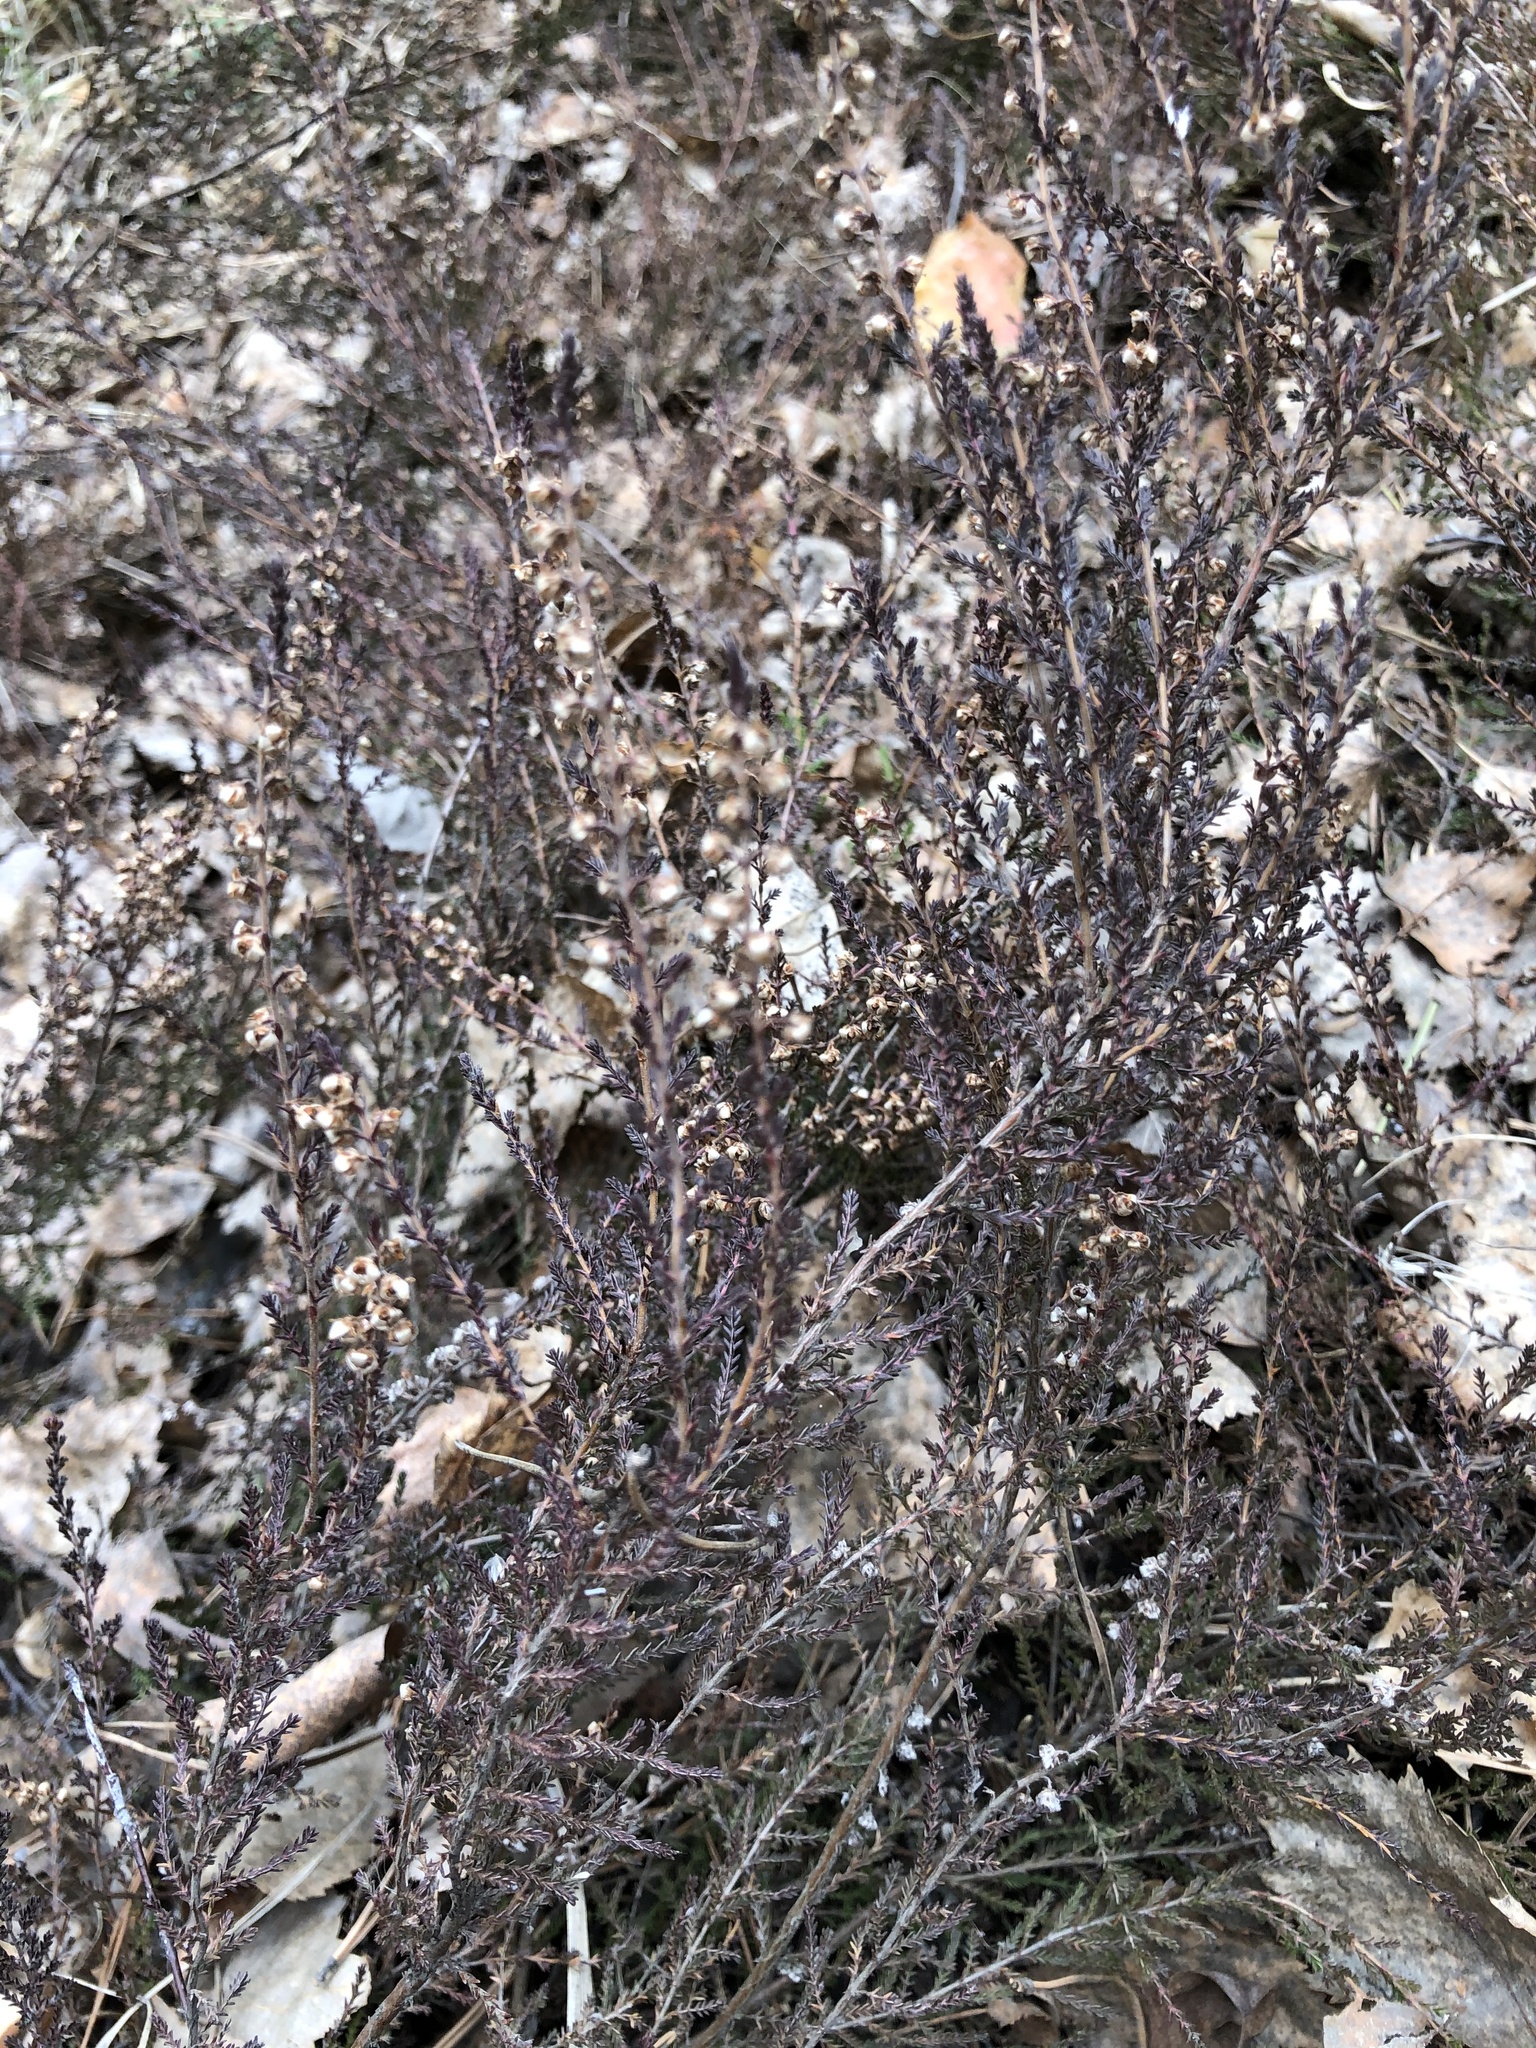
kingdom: Plantae
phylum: Tracheophyta
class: Magnoliopsida
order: Ericales
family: Ericaceae
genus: Calluna
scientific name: Calluna vulgaris
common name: Heather
